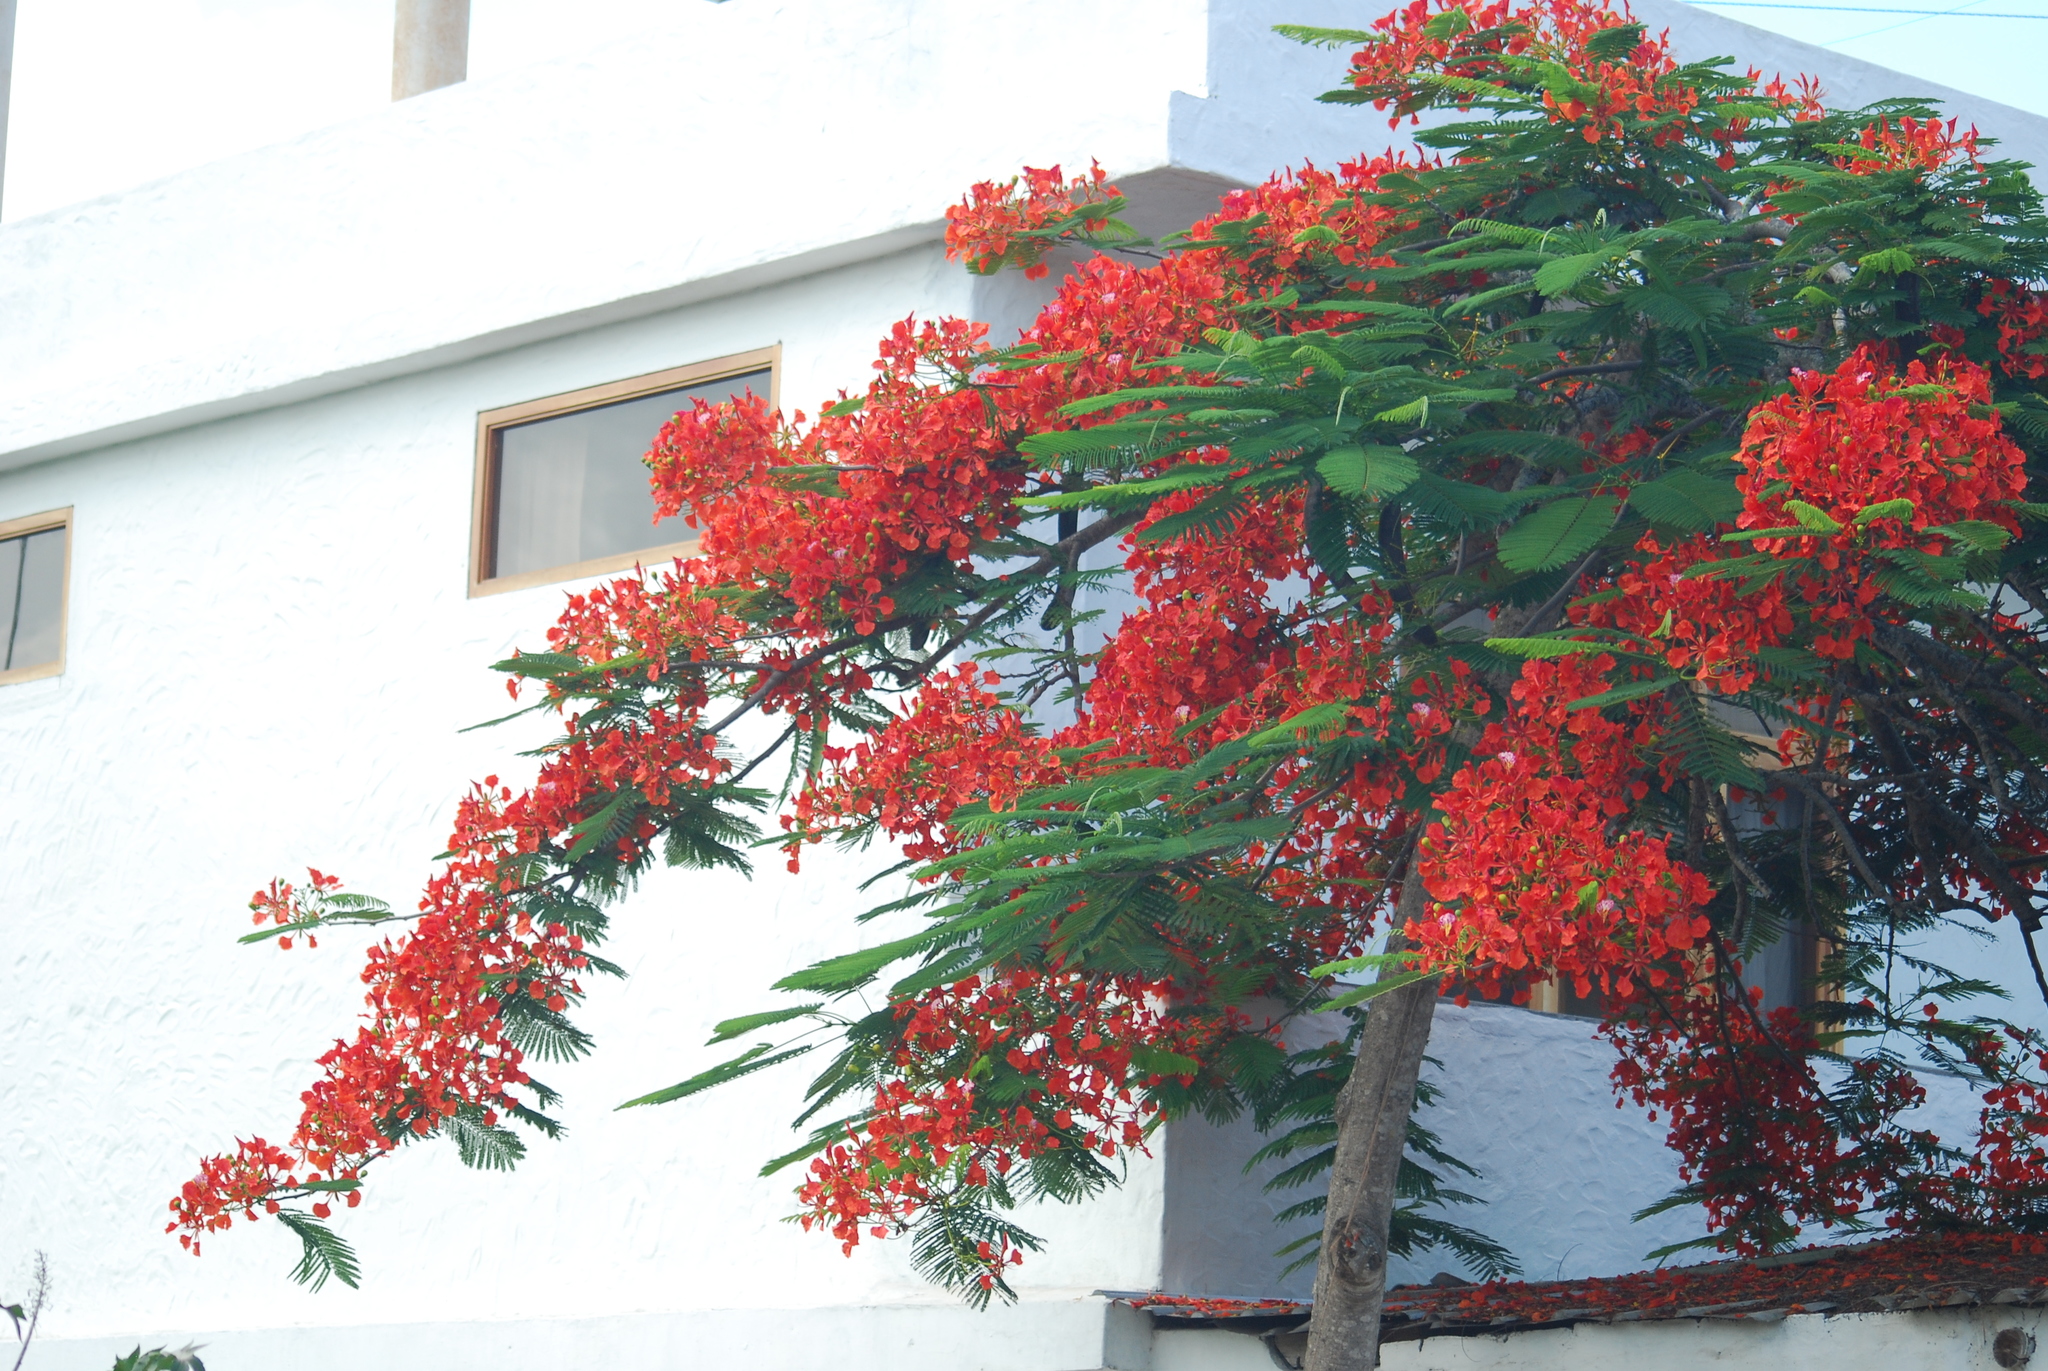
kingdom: Plantae
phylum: Tracheophyta
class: Magnoliopsida
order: Fabales
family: Fabaceae
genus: Delonix
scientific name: Delonix regia
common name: Royal poinciana
